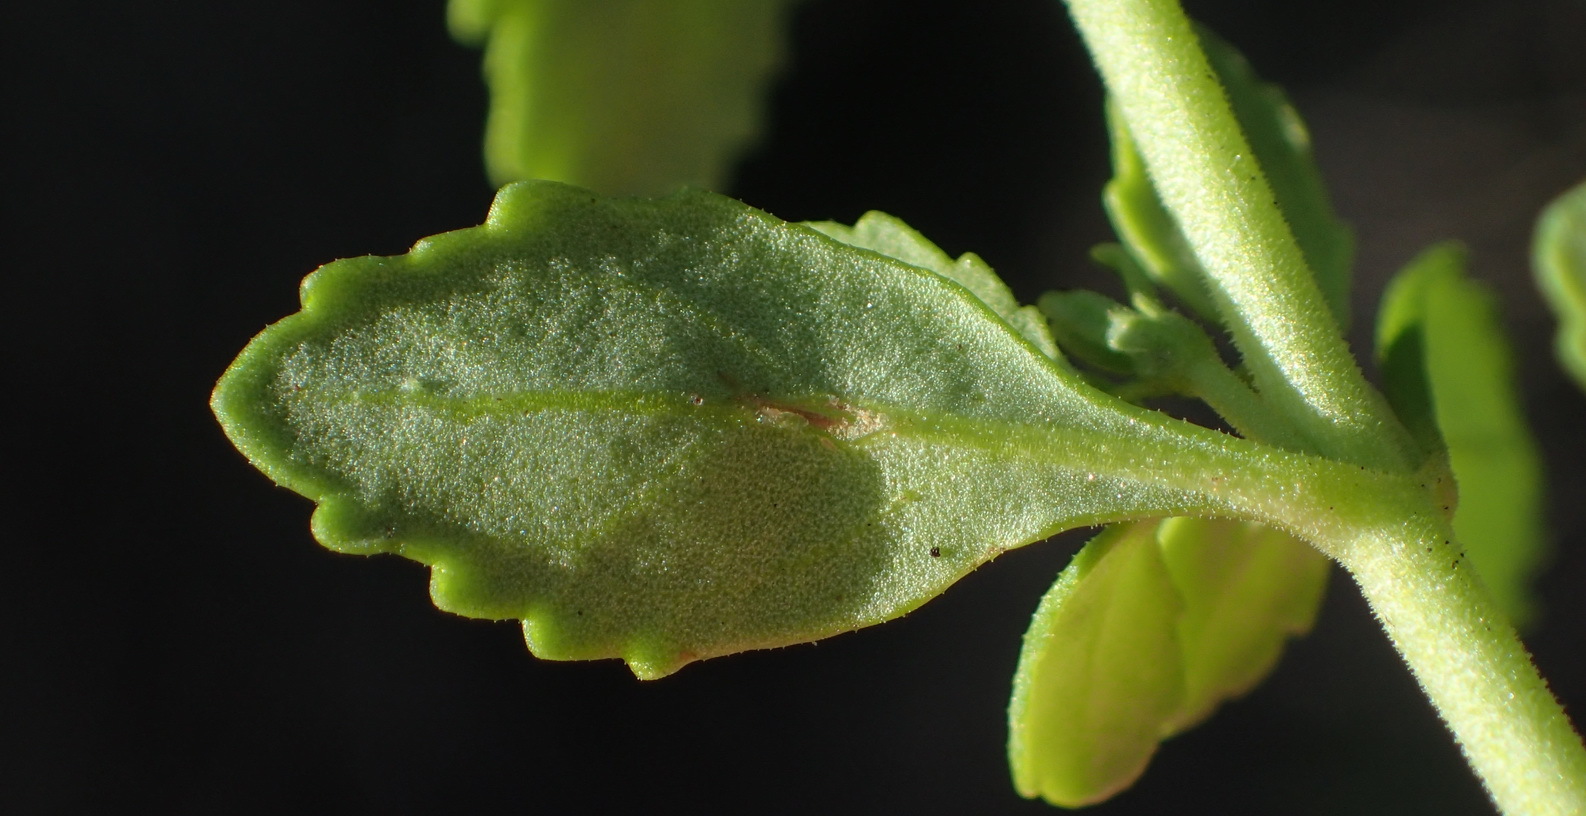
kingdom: Plantae
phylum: Tracheophyta
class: Magnoliopsida
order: Lamiales
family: Scrophulariaceae
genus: Chaenostoma
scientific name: Chaenostoma integrifolium
